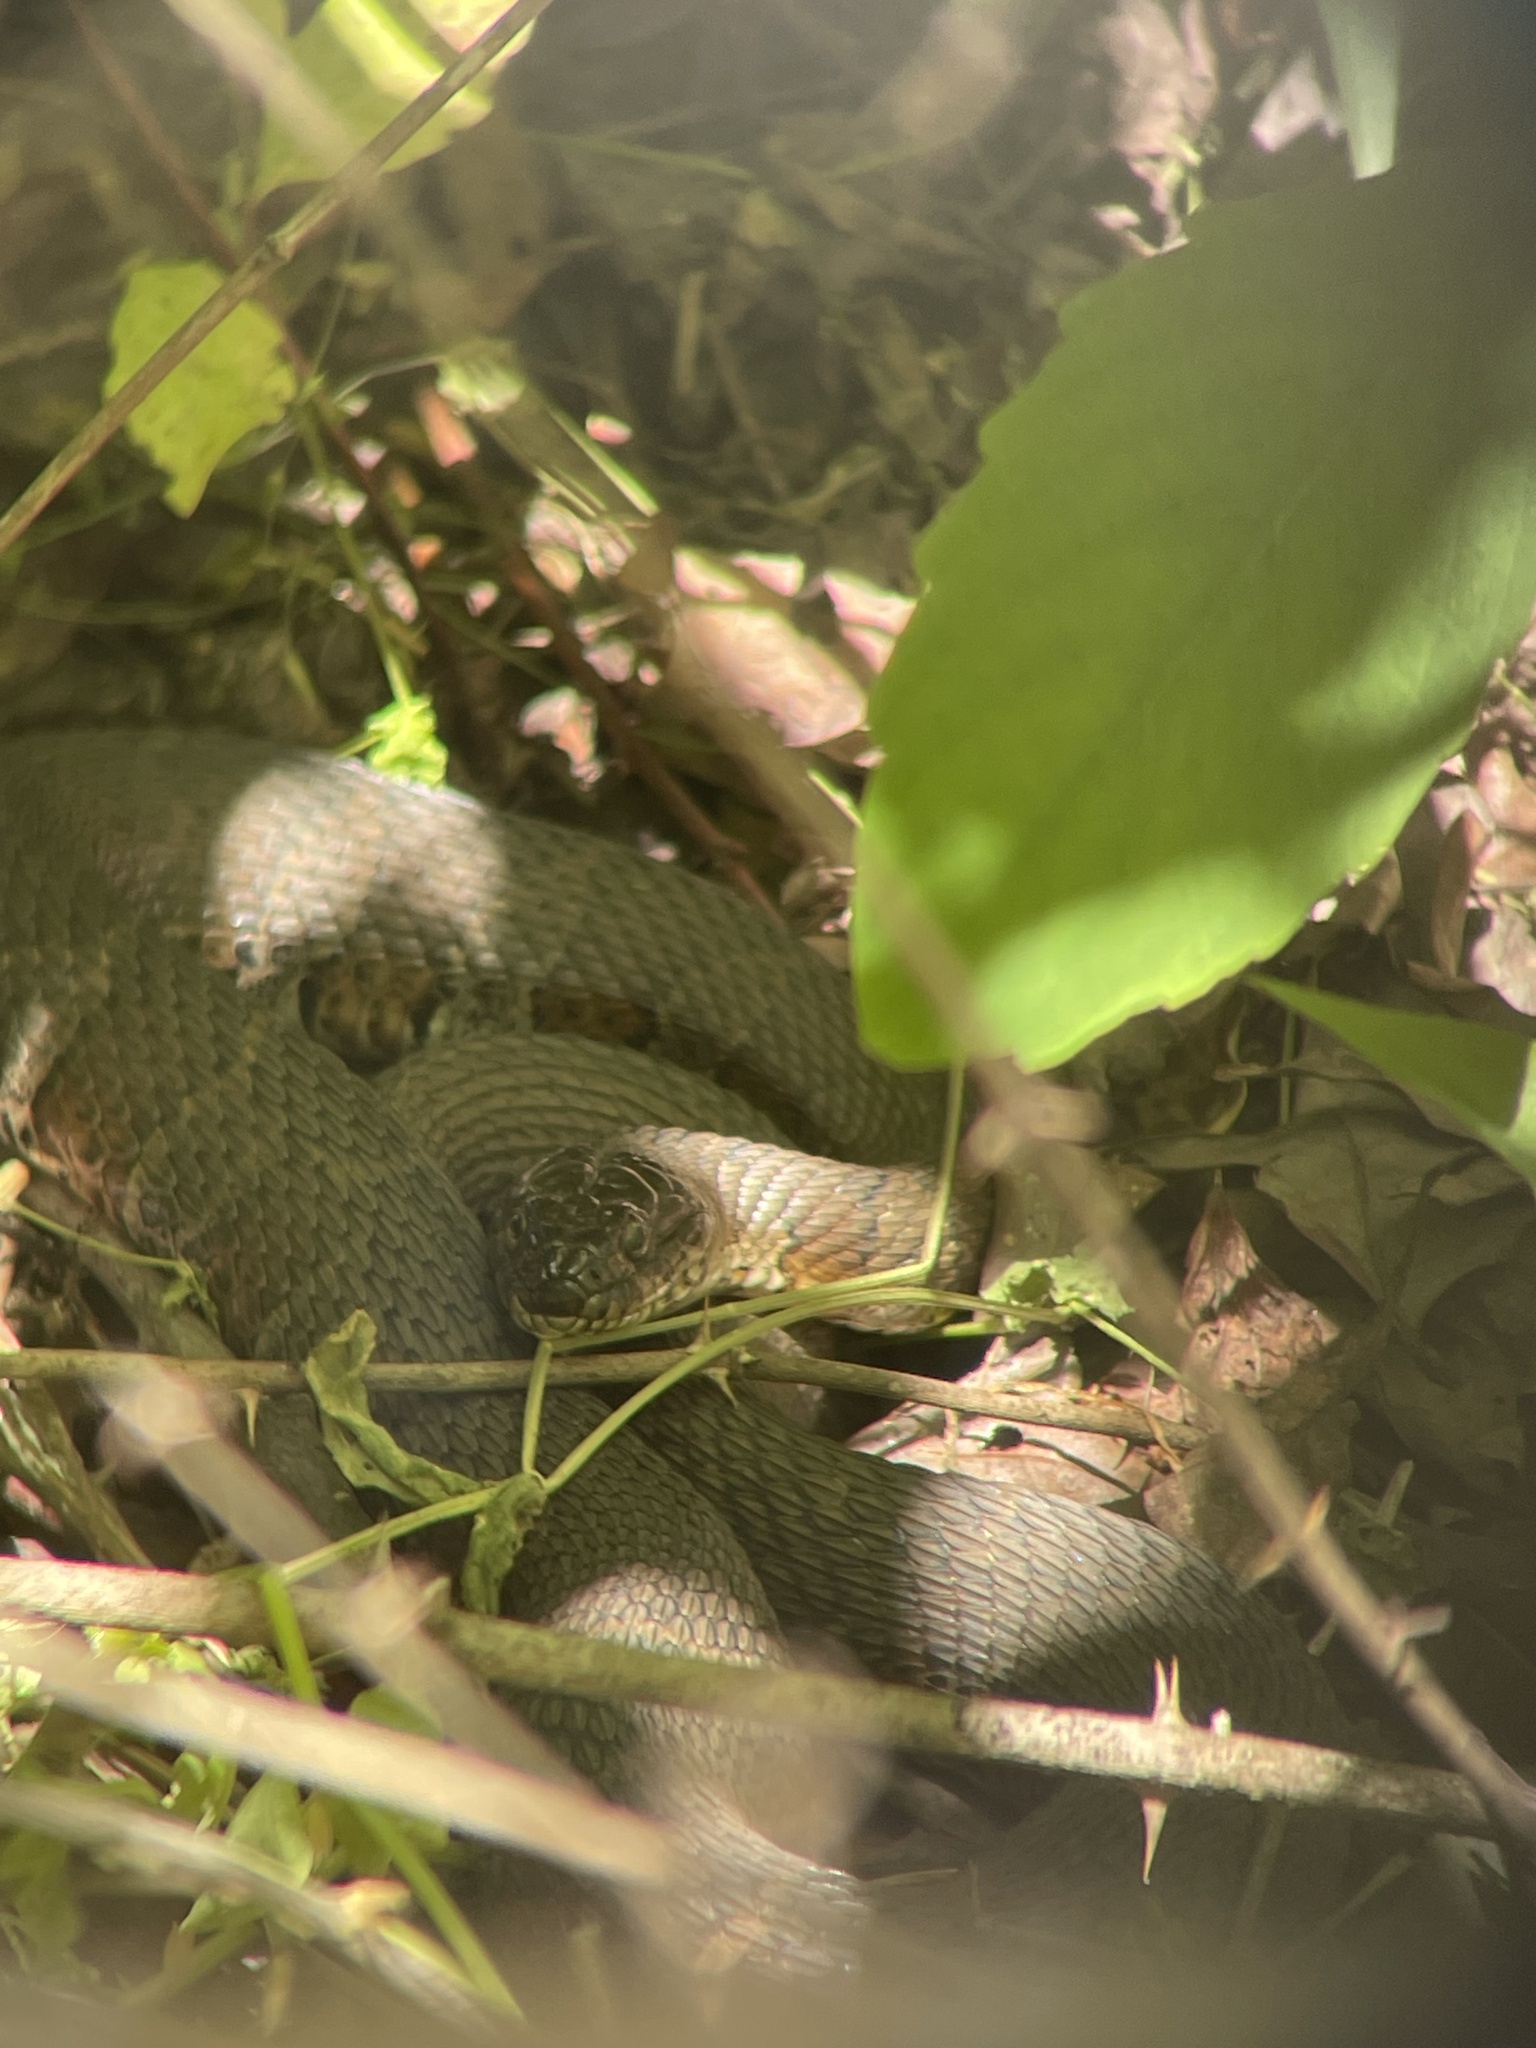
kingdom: Animalia
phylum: Chordata
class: Squamata
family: Colubridae
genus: Nerodia
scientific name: Nerodia sipedon
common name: Northern water snake
